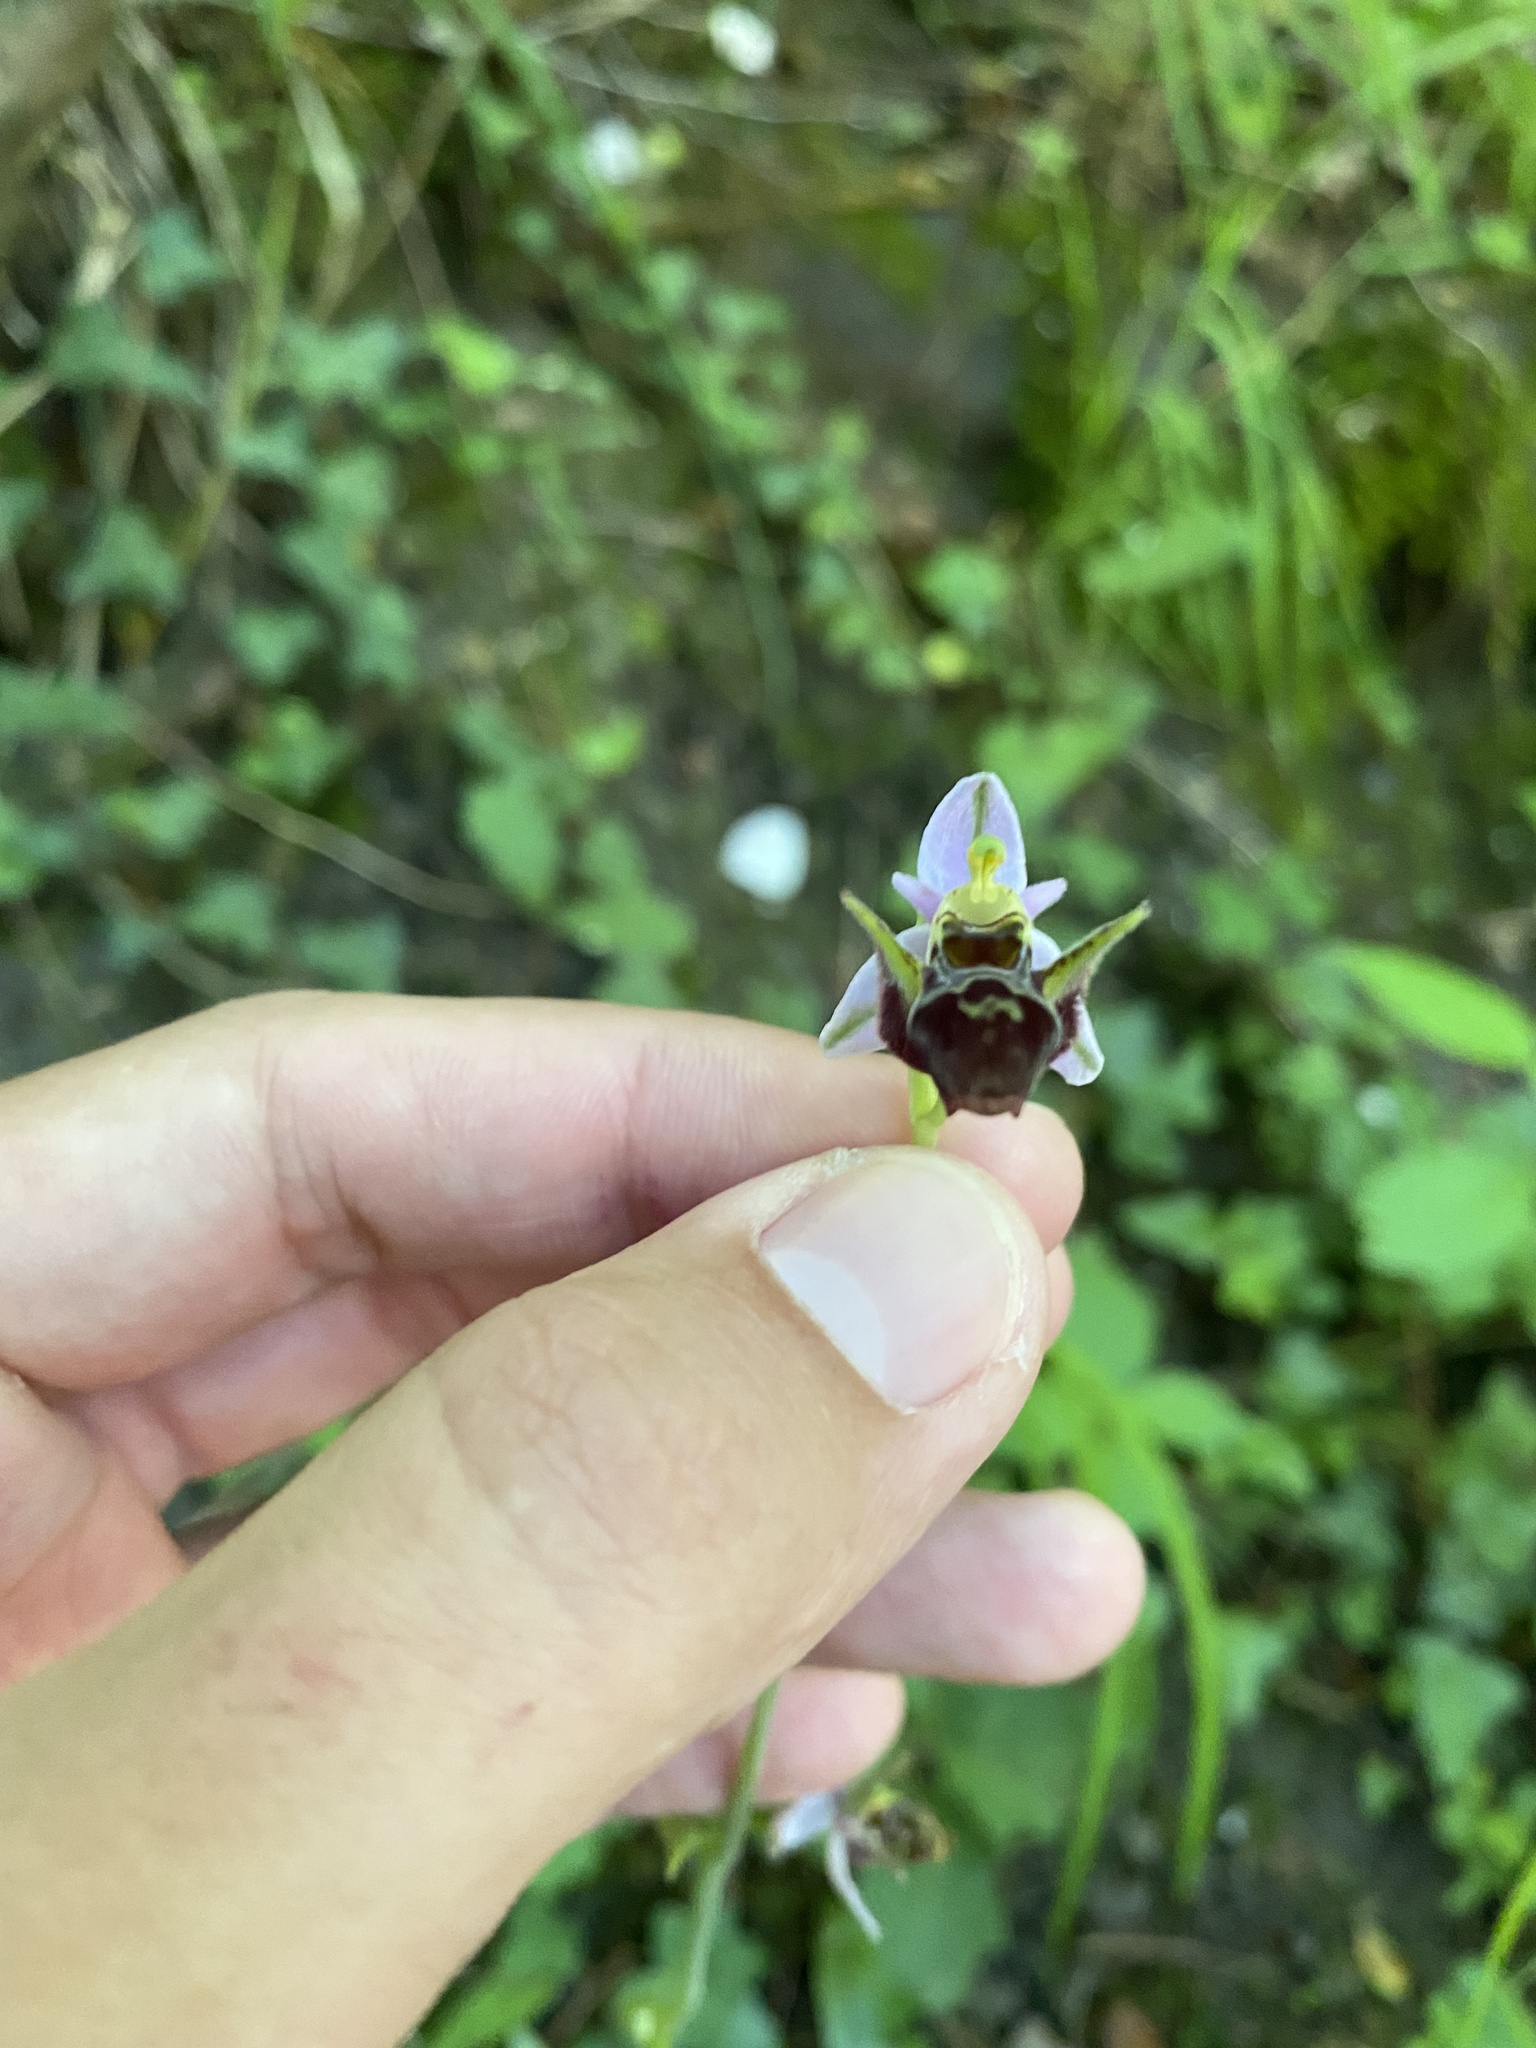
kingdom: Plantae
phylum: Tracheophyta
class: Liliopsida
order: Asparagales
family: Orchidaceae
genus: Ophrys
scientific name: Ophrys
